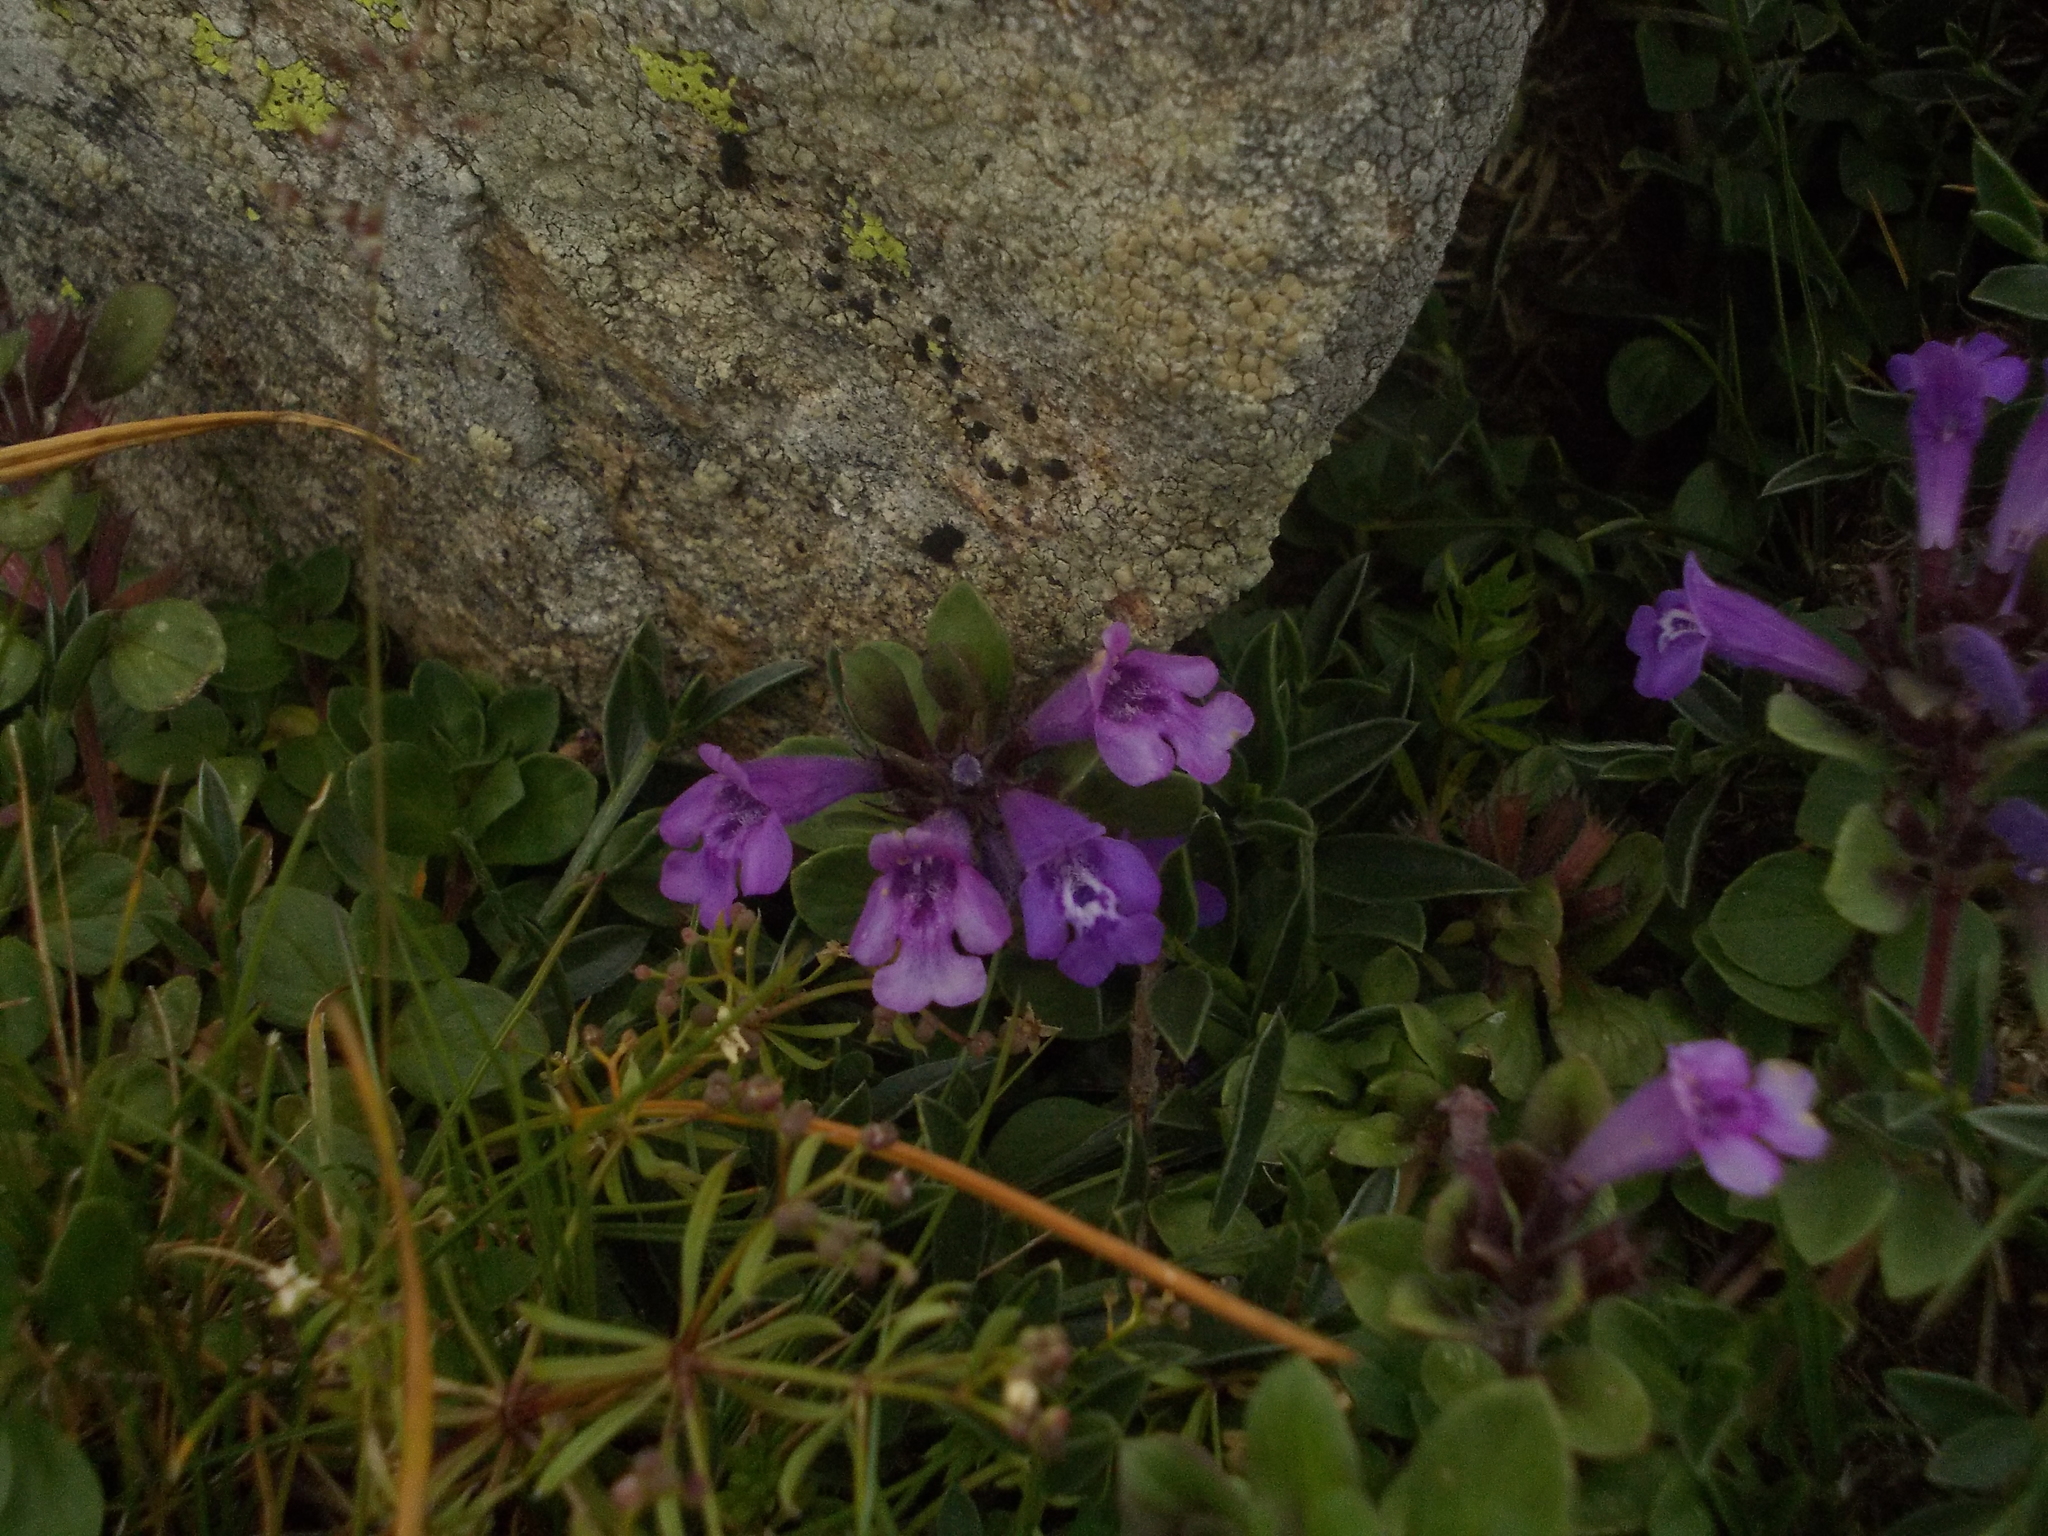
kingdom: Plantae
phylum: Tracheophyta
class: Magnoliopsida
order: Lamiales
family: Lamiaceae
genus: Clinopodium
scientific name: Clinopodium alpinum
